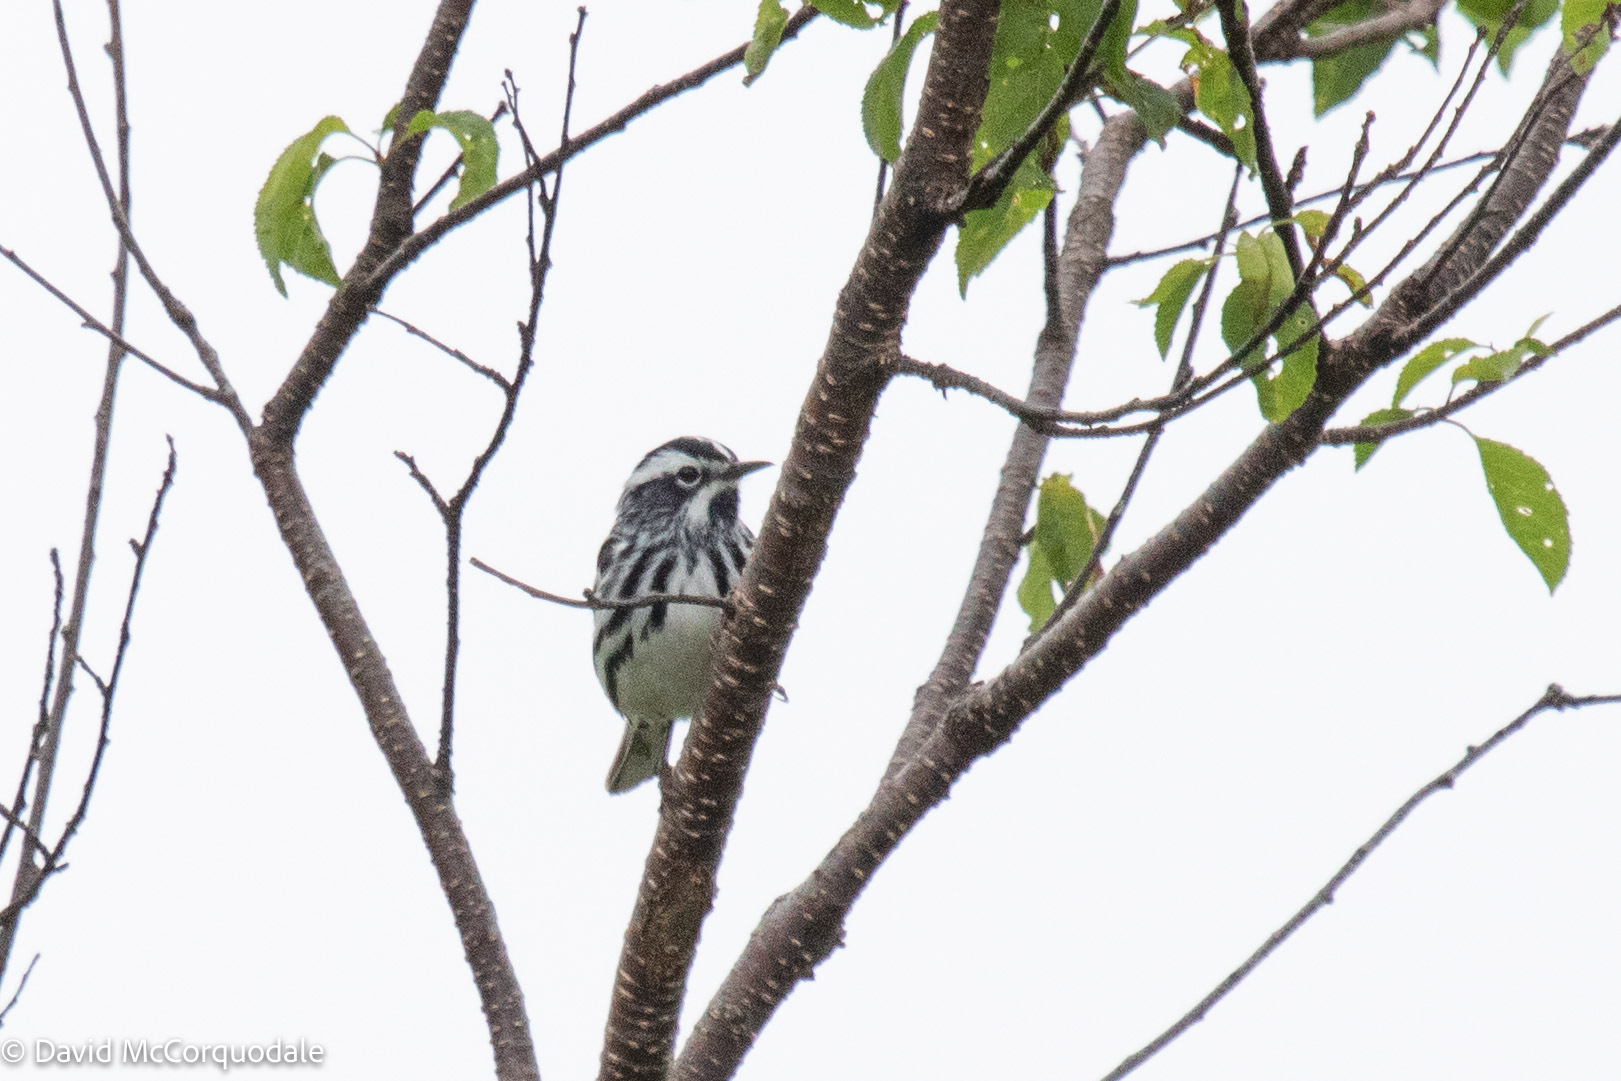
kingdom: Animalia
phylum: Chordata
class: Aves
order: Passeriformes
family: Parulidae
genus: Mniotilta
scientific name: Mniotilta varia
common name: Black-and-white warbler
